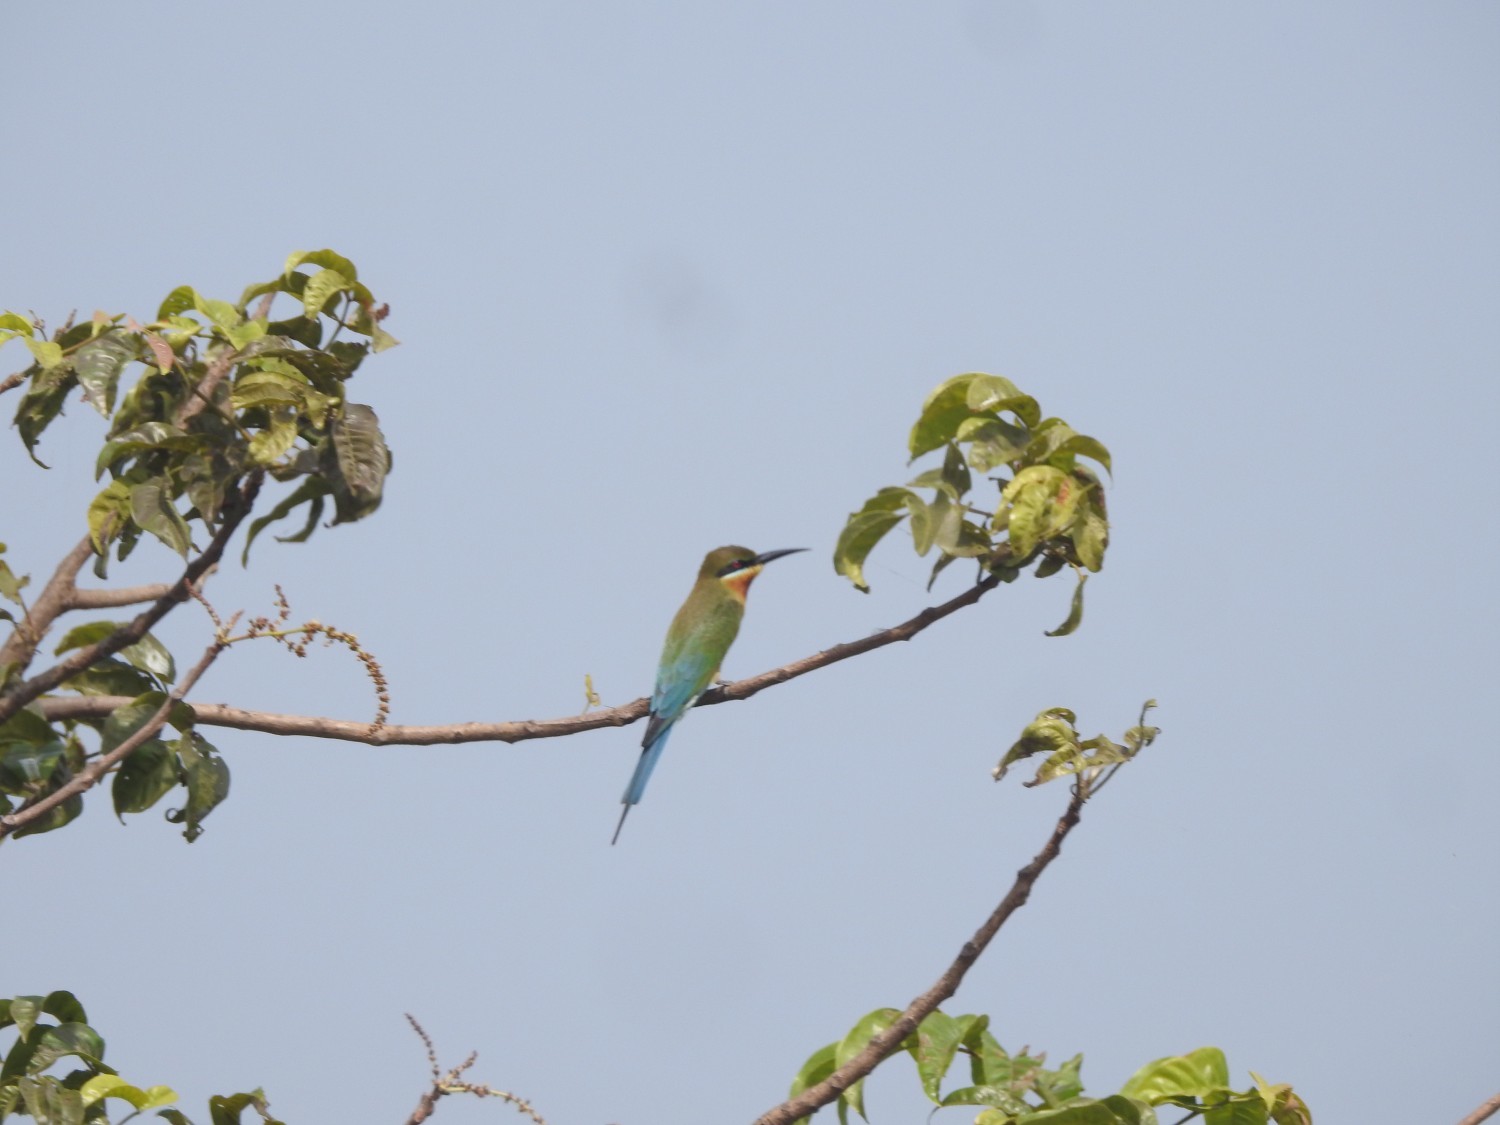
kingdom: Animalia
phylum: Chordata
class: Aves
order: Coraciiformes
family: Meropidae
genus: Merops
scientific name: Merops philippinus
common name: Blue-tailed bee-eater
